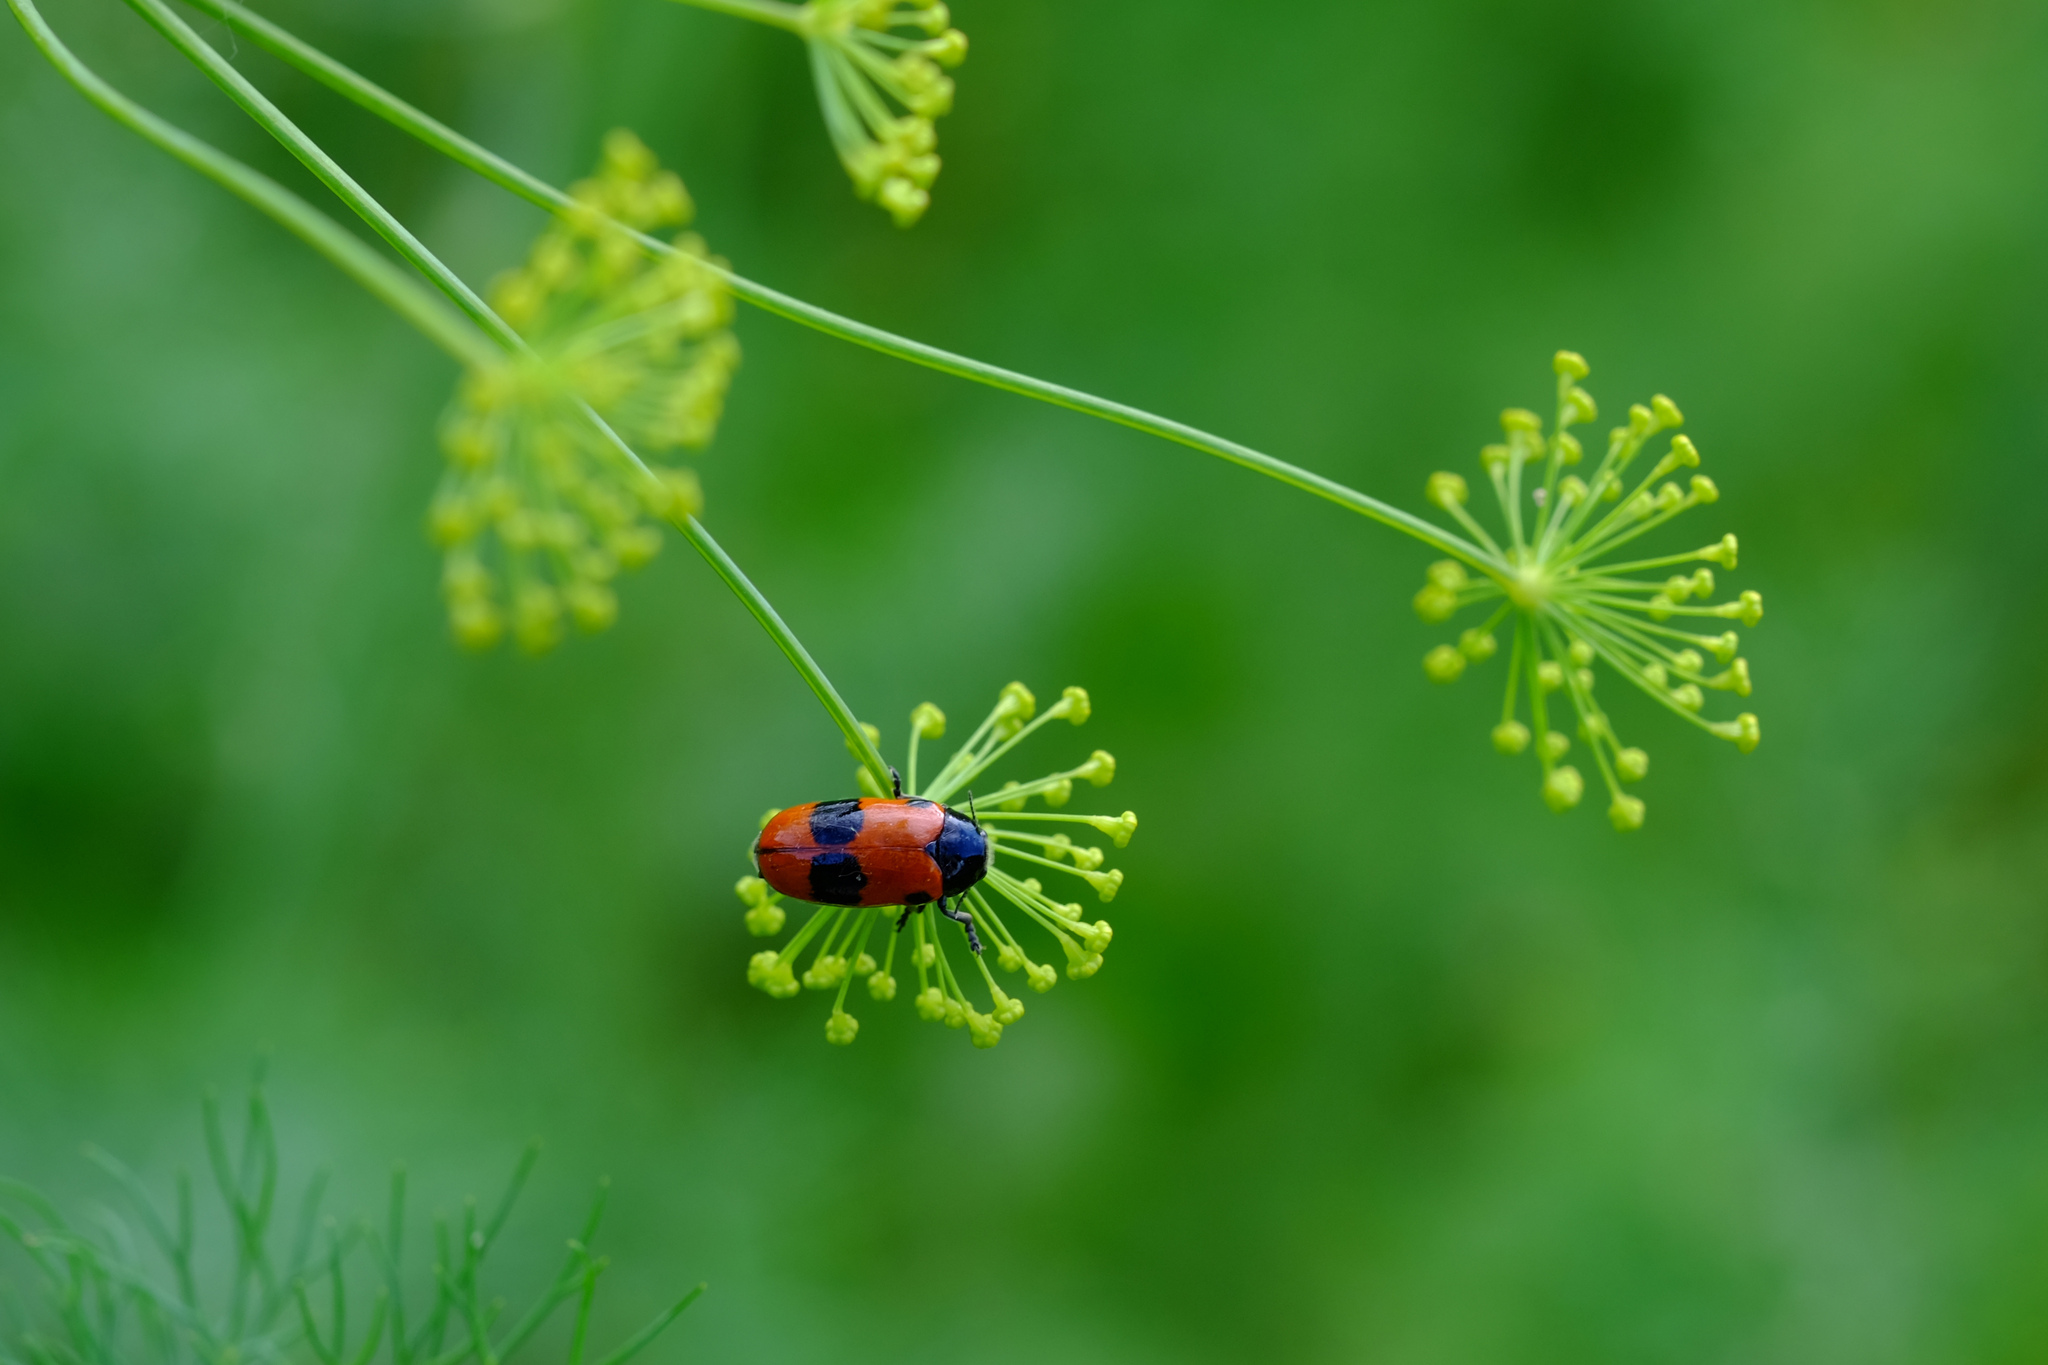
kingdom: Animalia
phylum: Arthropoda
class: Insecta
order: Coleoptera
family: Chrysomelidae
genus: Clytra
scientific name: Clytra laeviuscula
